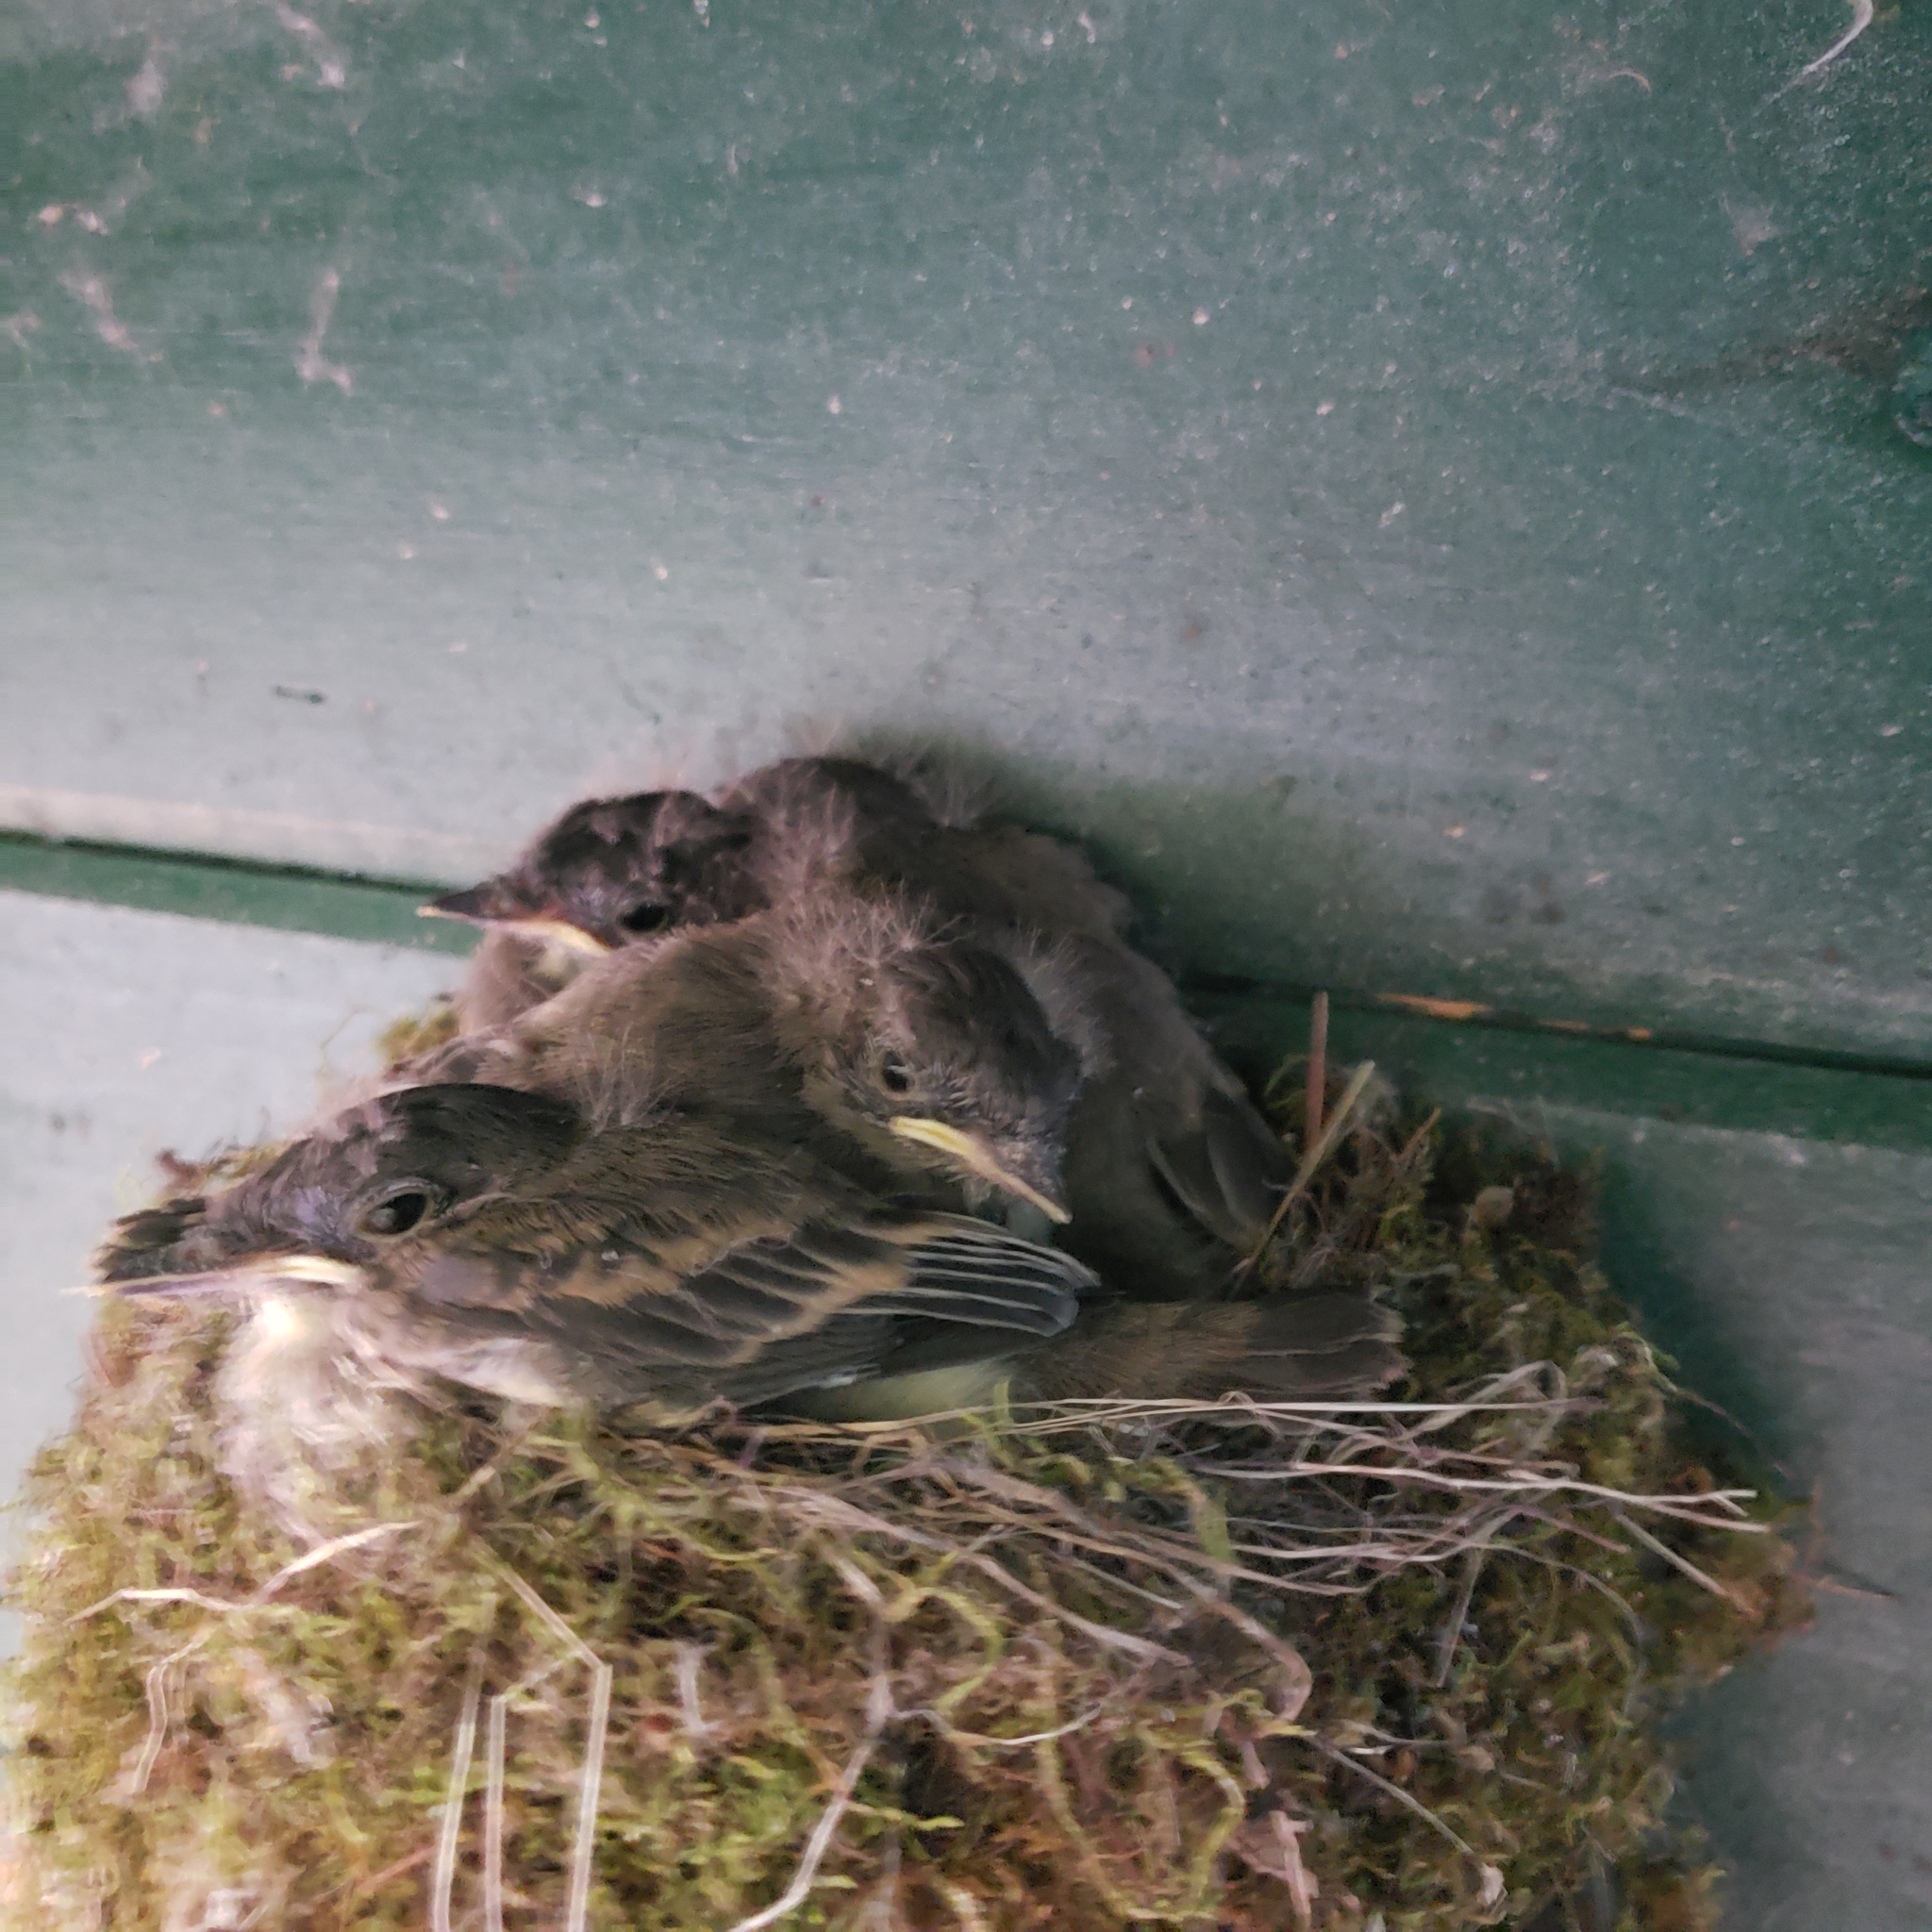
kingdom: Animalia
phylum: Chordata
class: Aves
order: Passeriformes
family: Tyrannidae
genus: Sayornis
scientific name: Sayornis phoebe
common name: Eastern phoebe
